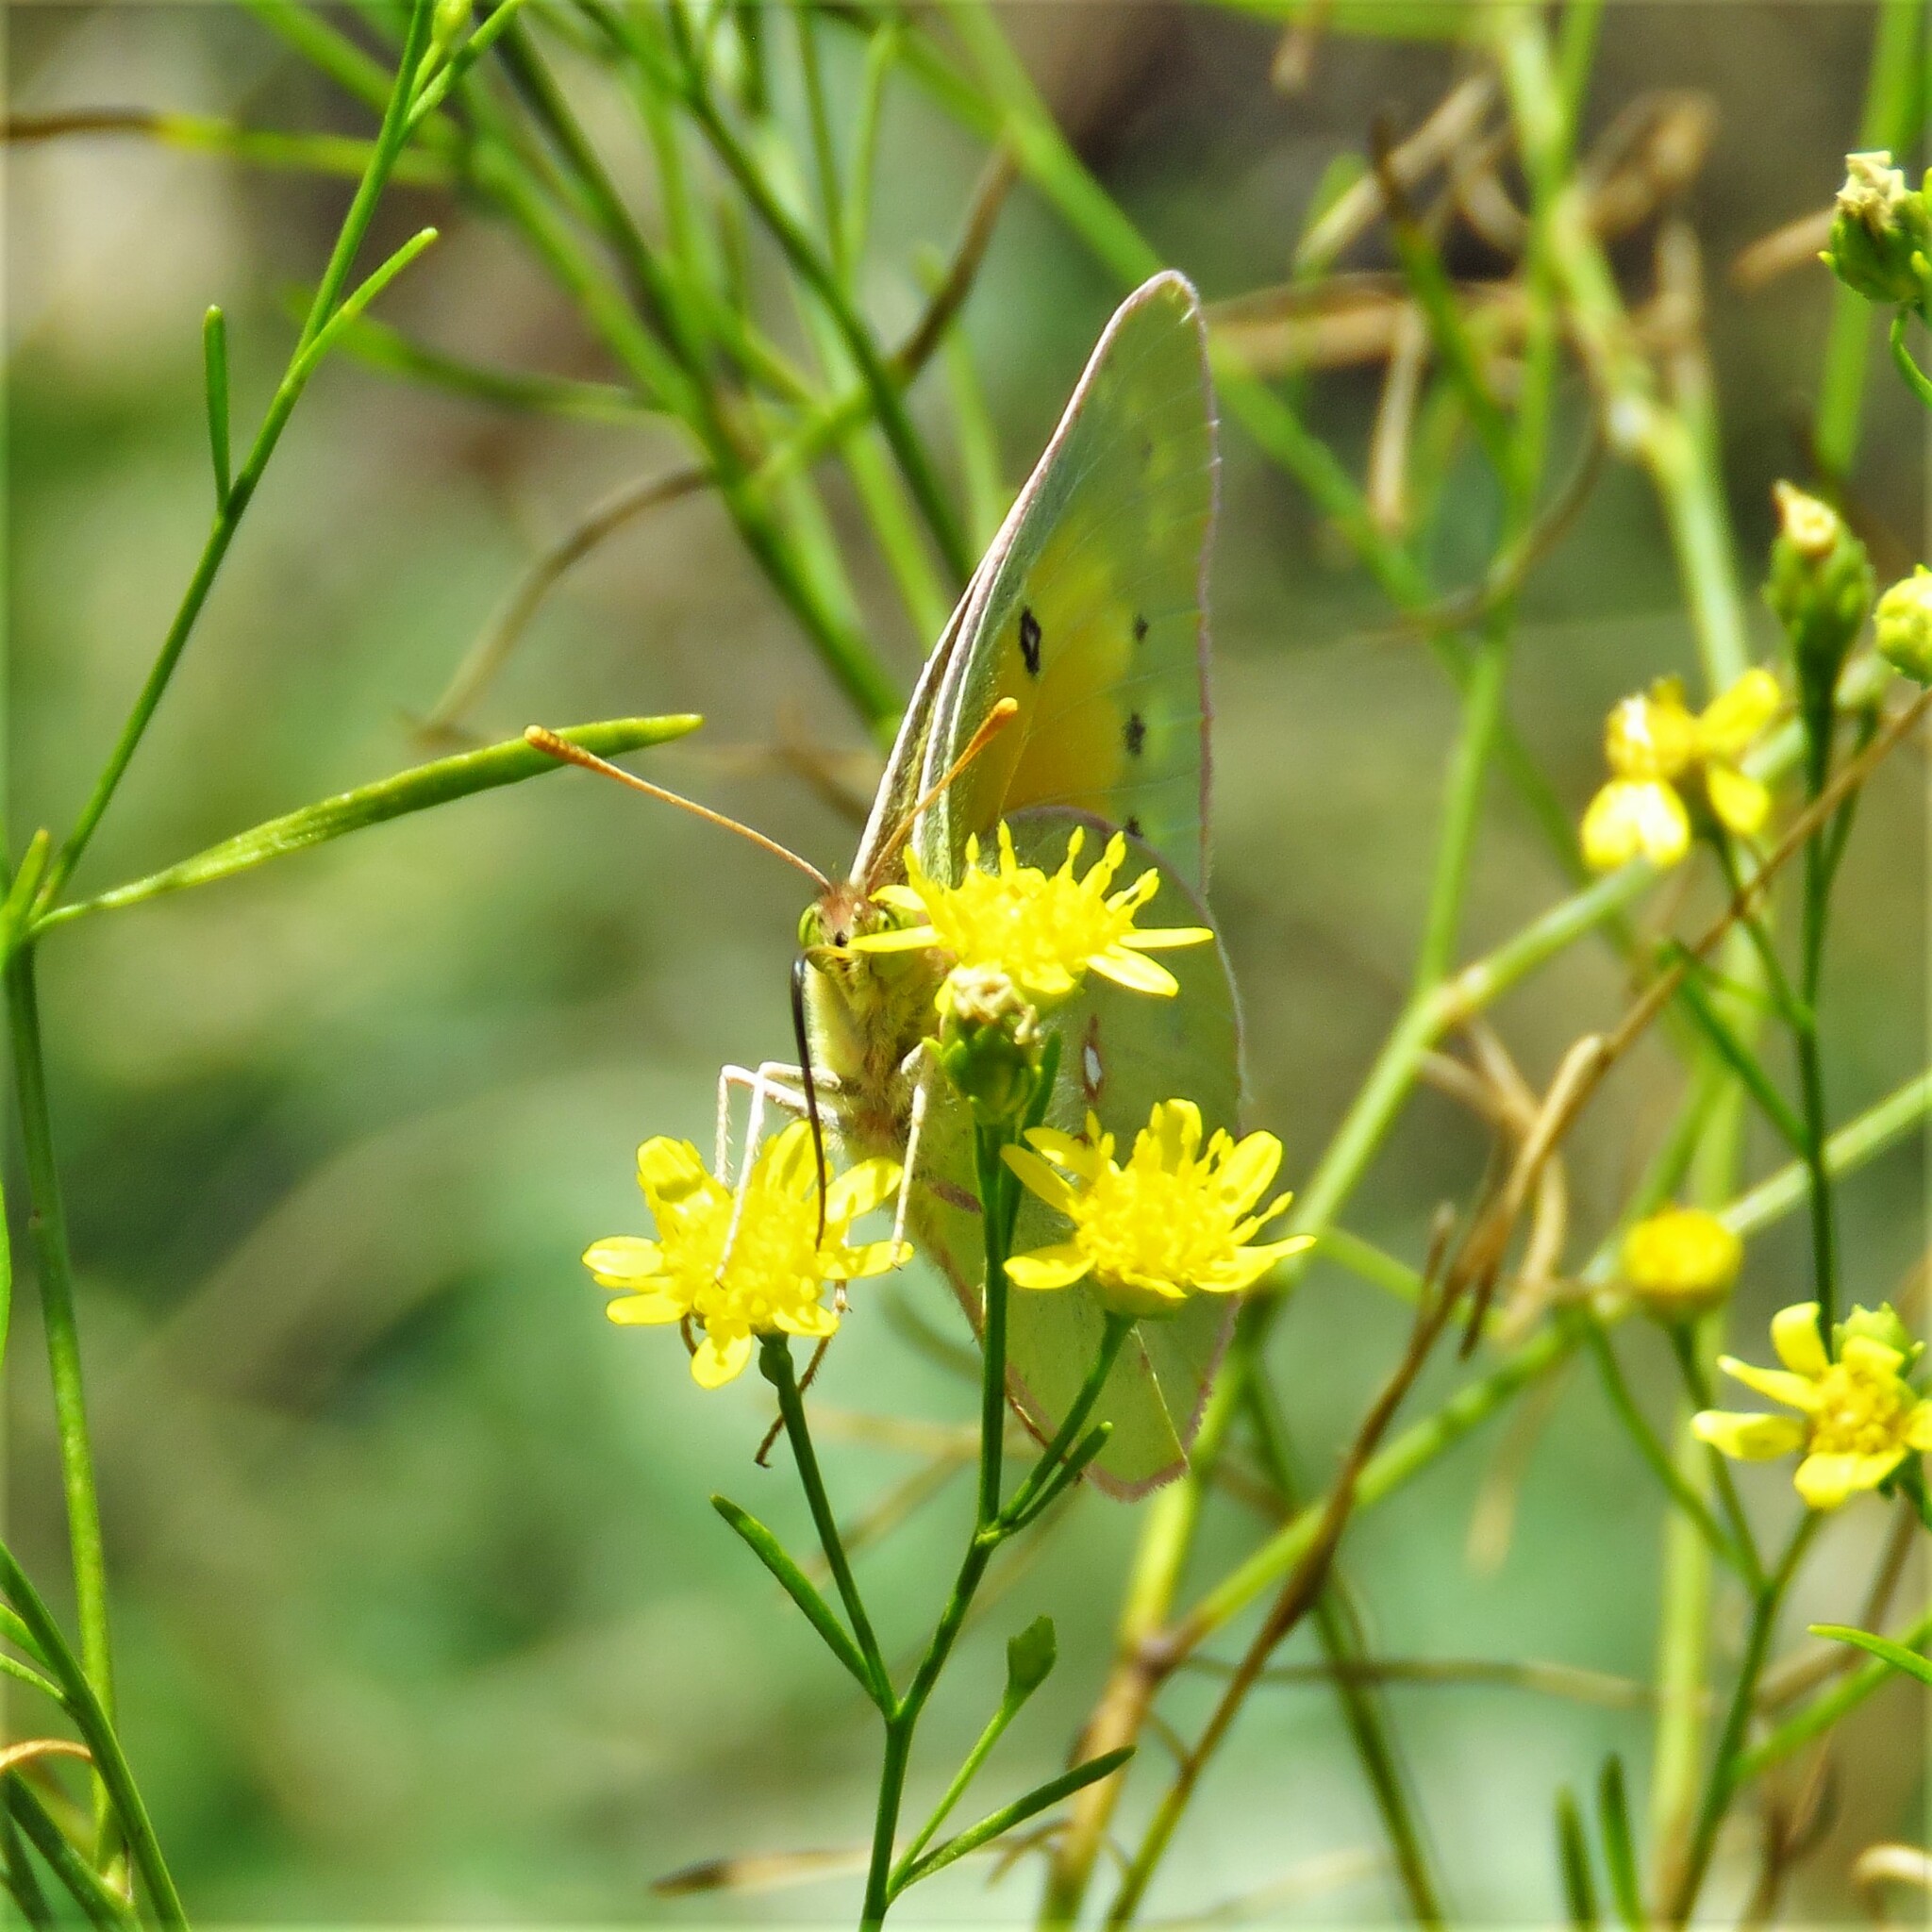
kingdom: Animalia
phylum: Arthropoda
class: Insecta
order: Lepidoptera
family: Pieridae
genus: Colias
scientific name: Colias eurytheme
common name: Alfalfa butterfly
